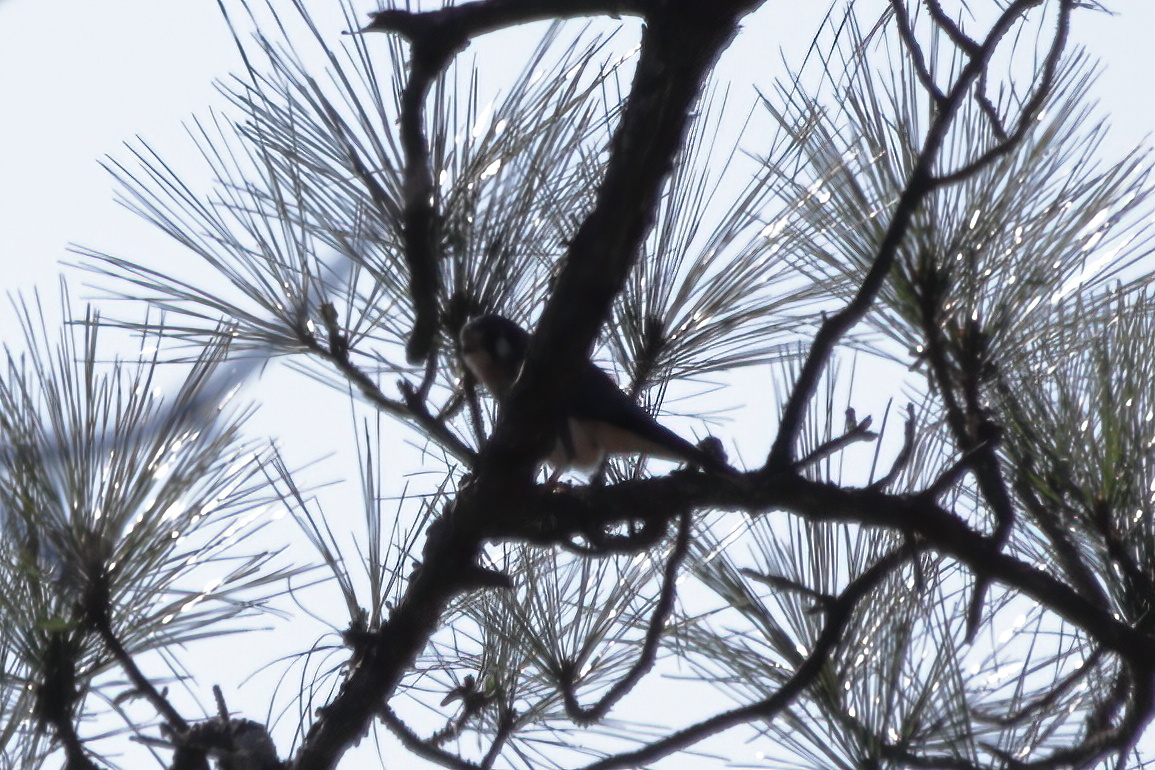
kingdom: Animalia
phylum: Chordata
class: Aves
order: Falconiformes
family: Falconidae
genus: Falco
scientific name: Falco sparverius
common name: American kestrel
